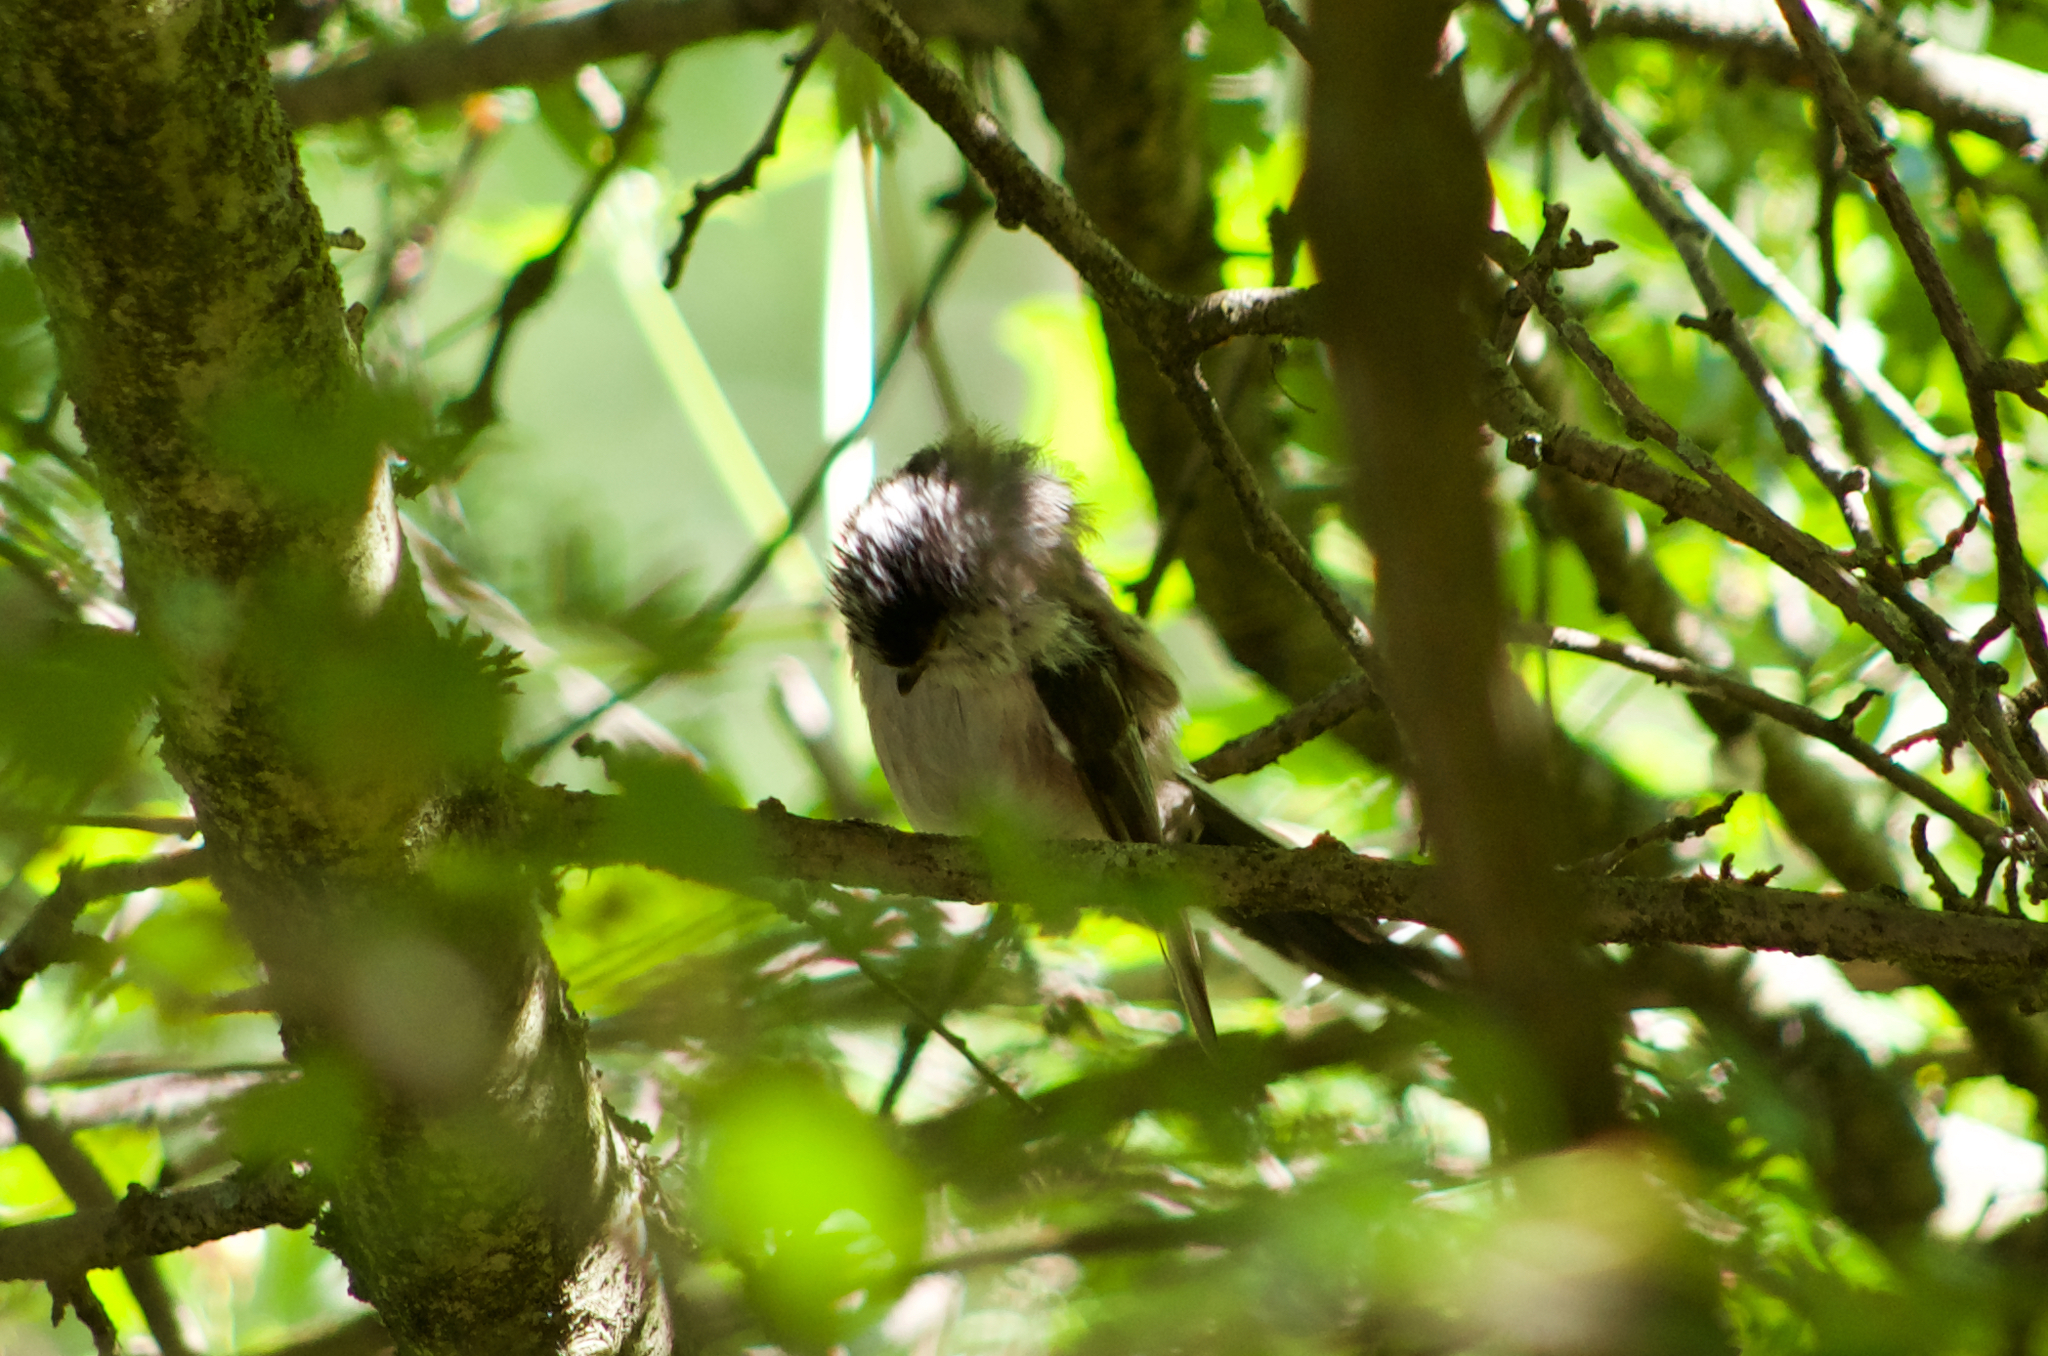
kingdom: Animalia
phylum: Chordata
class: Aves
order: Passeriformes
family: Aegithalidae
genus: Aegithalos
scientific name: Aegithalos caudatus
